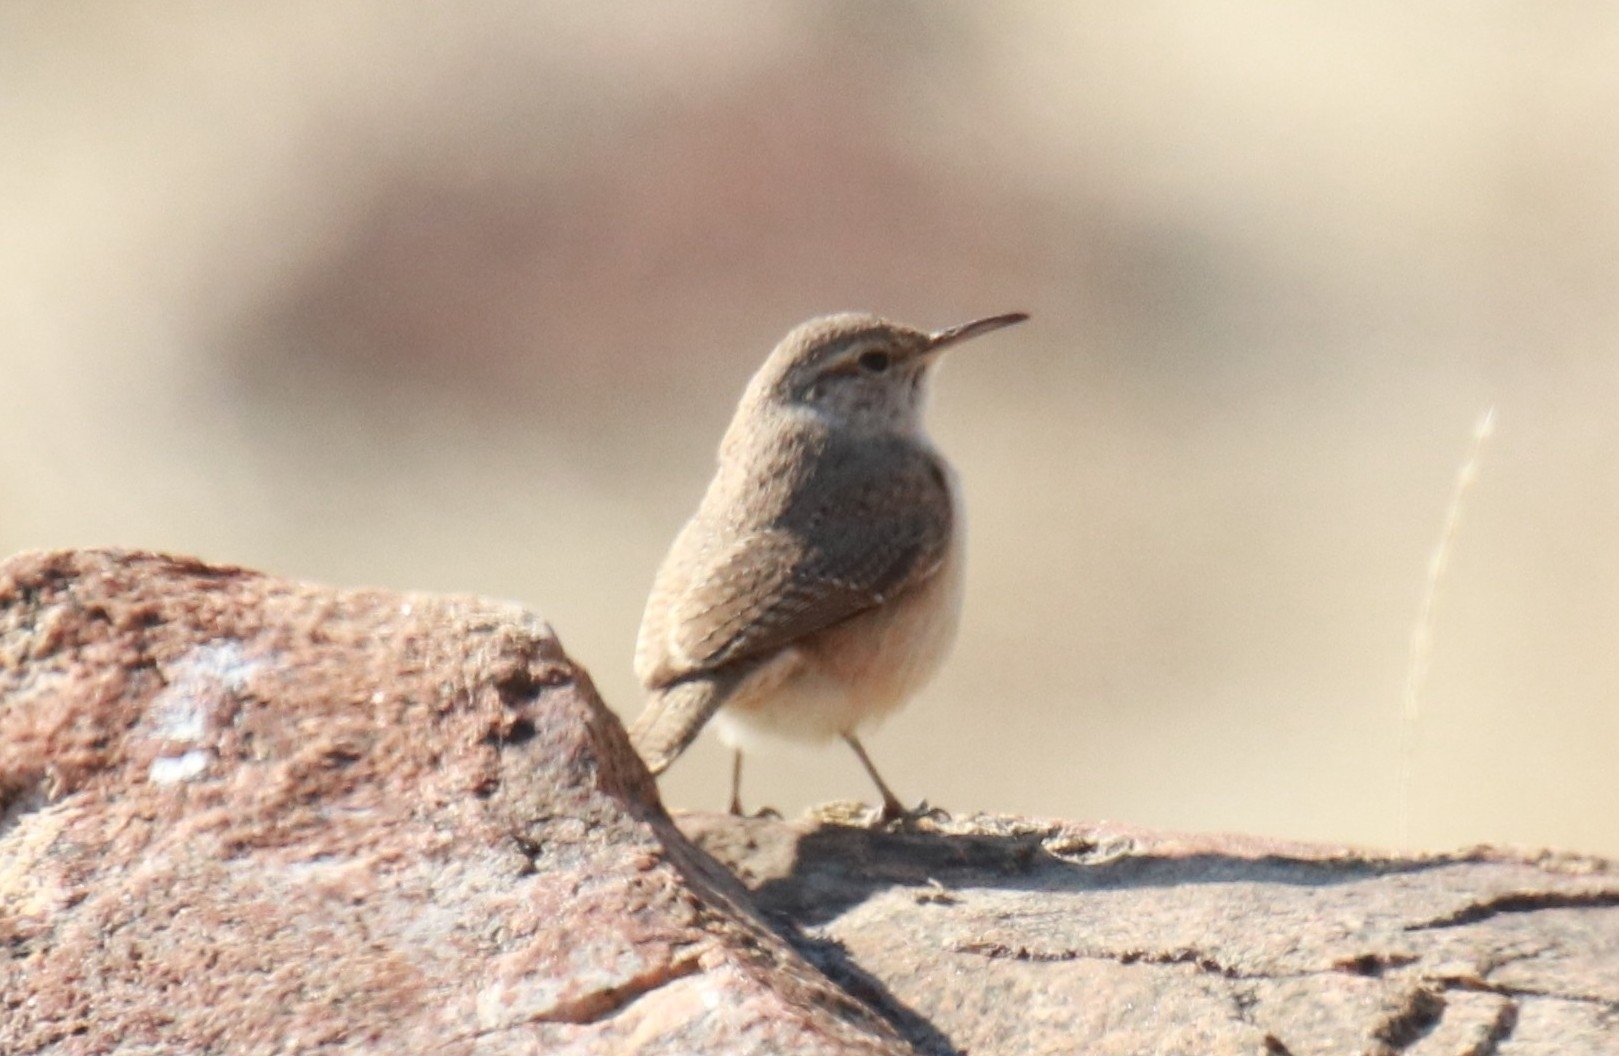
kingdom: Animalia
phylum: Chordata
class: Aves
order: Passeriformes
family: Troglodytidae
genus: Salpinctes
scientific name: Salpinctes obsoletus
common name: Rock wren
